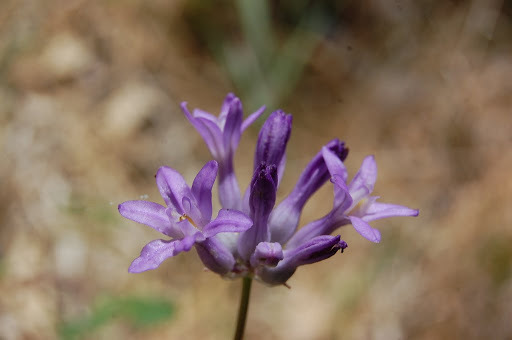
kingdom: Plantae
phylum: Tracheophyta
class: Liliopsida
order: Asparagales
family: Asparagaceae
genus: Dichelostemma
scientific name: Dichelostemma multiflorum
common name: Round-tooth ookow
